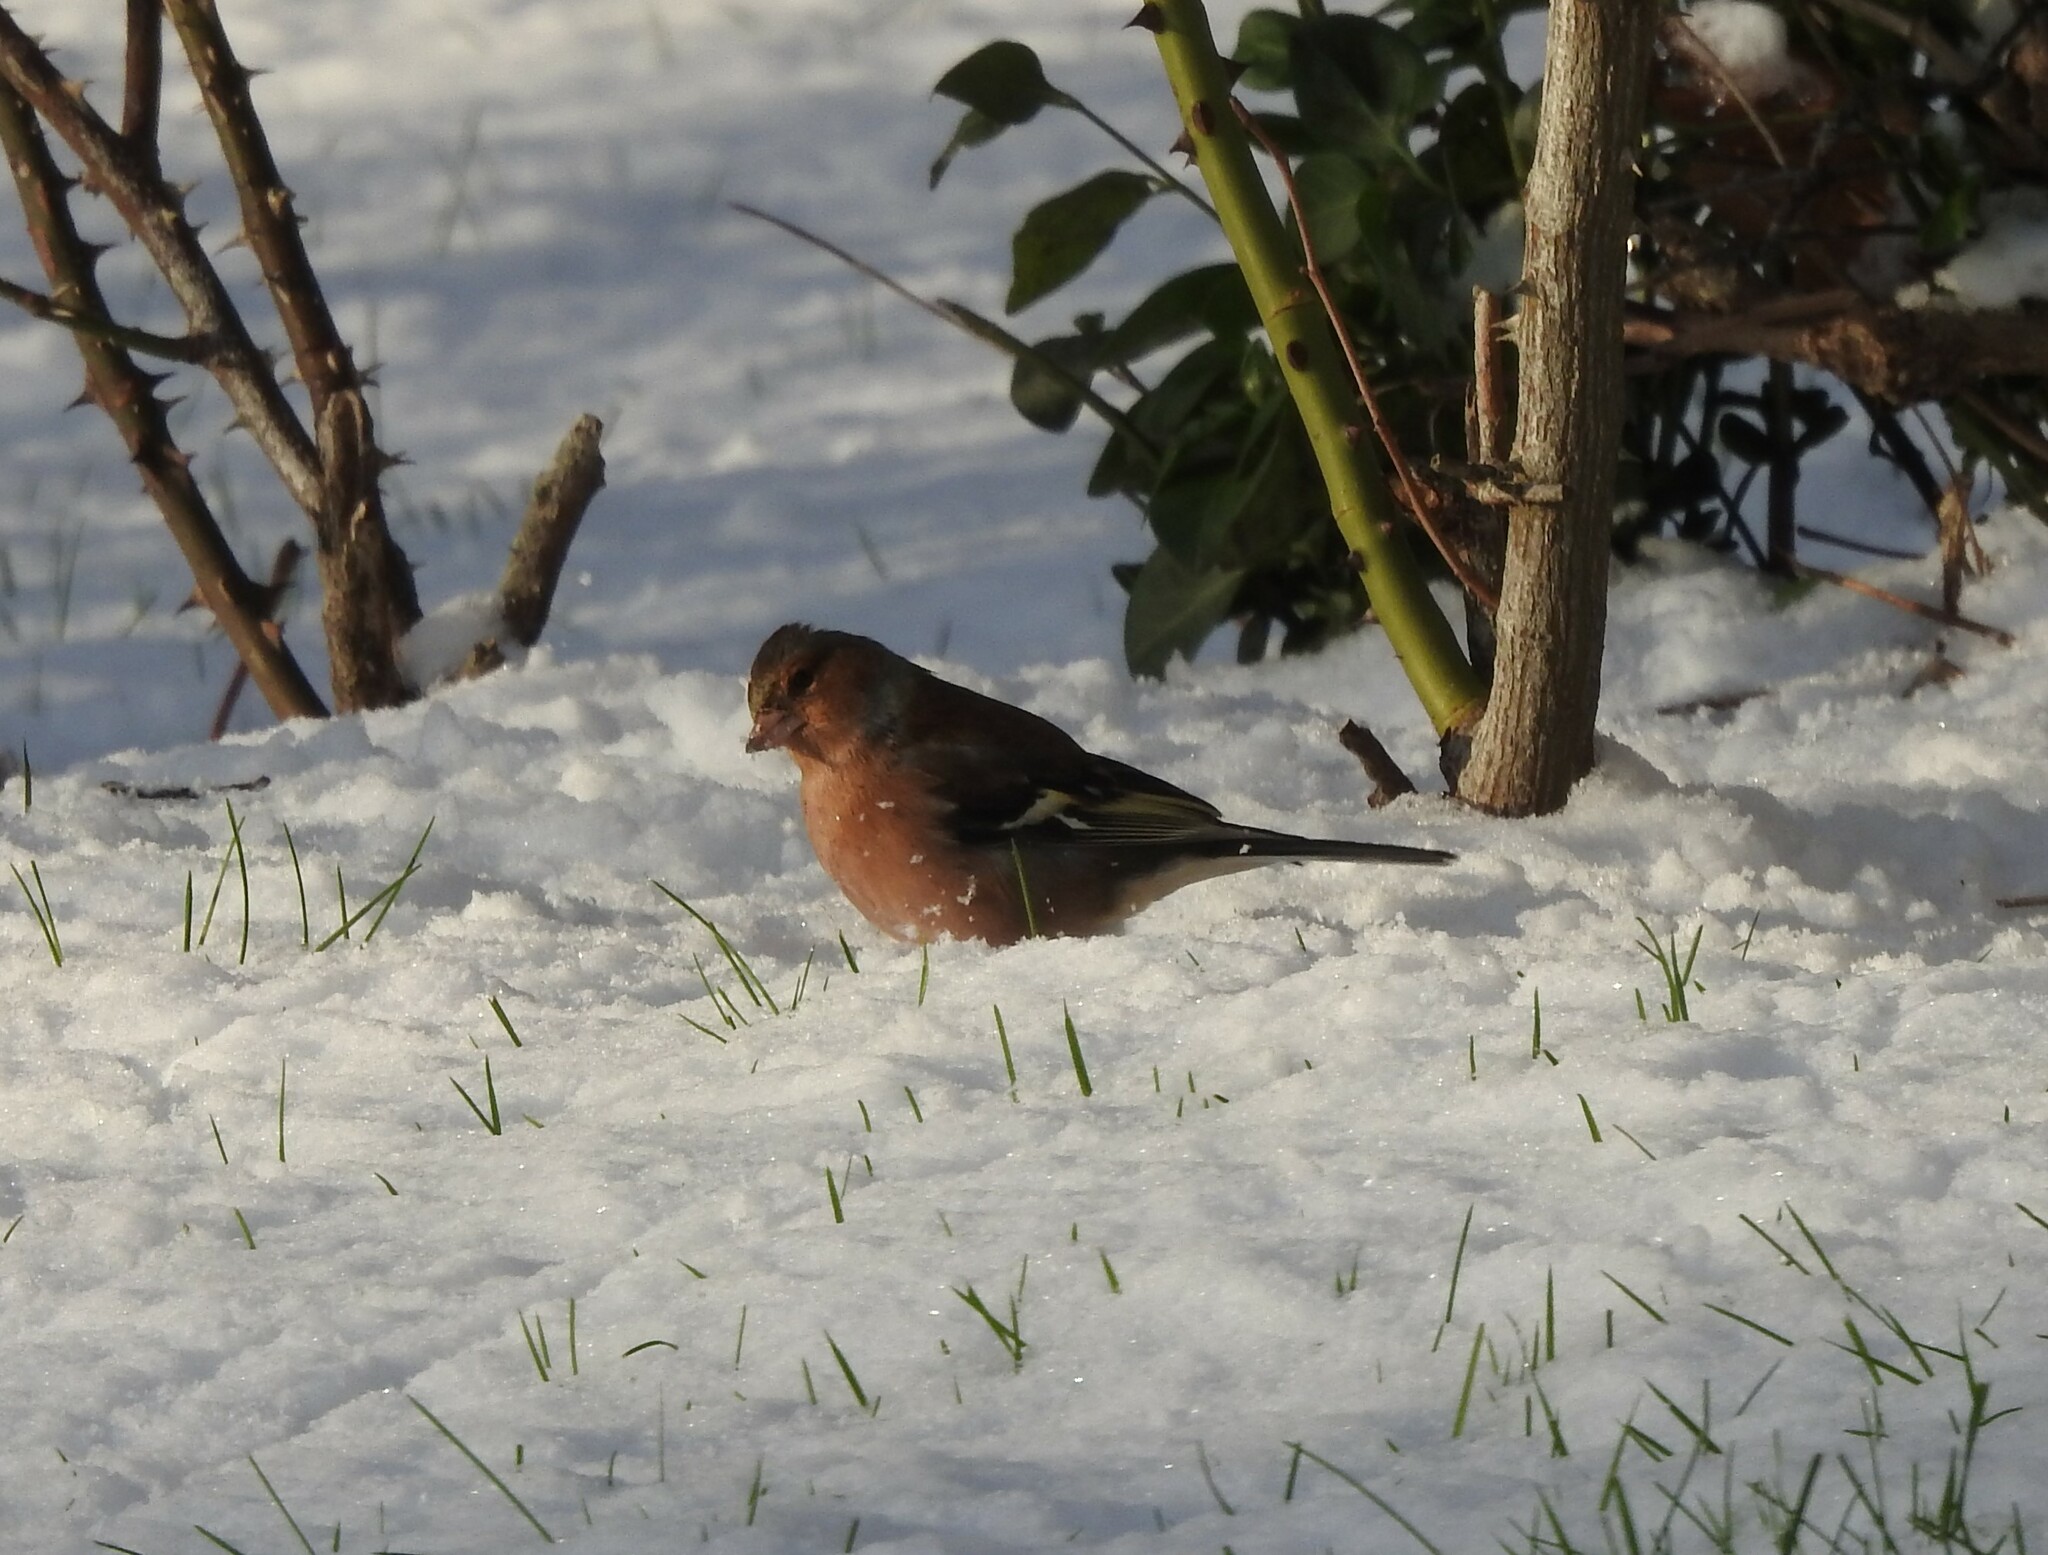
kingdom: Animalia
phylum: Chordata
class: Aves
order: Passeriformes
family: Fringillidae
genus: Fringilla
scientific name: Fringilla coelebs
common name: Common chaffinch
